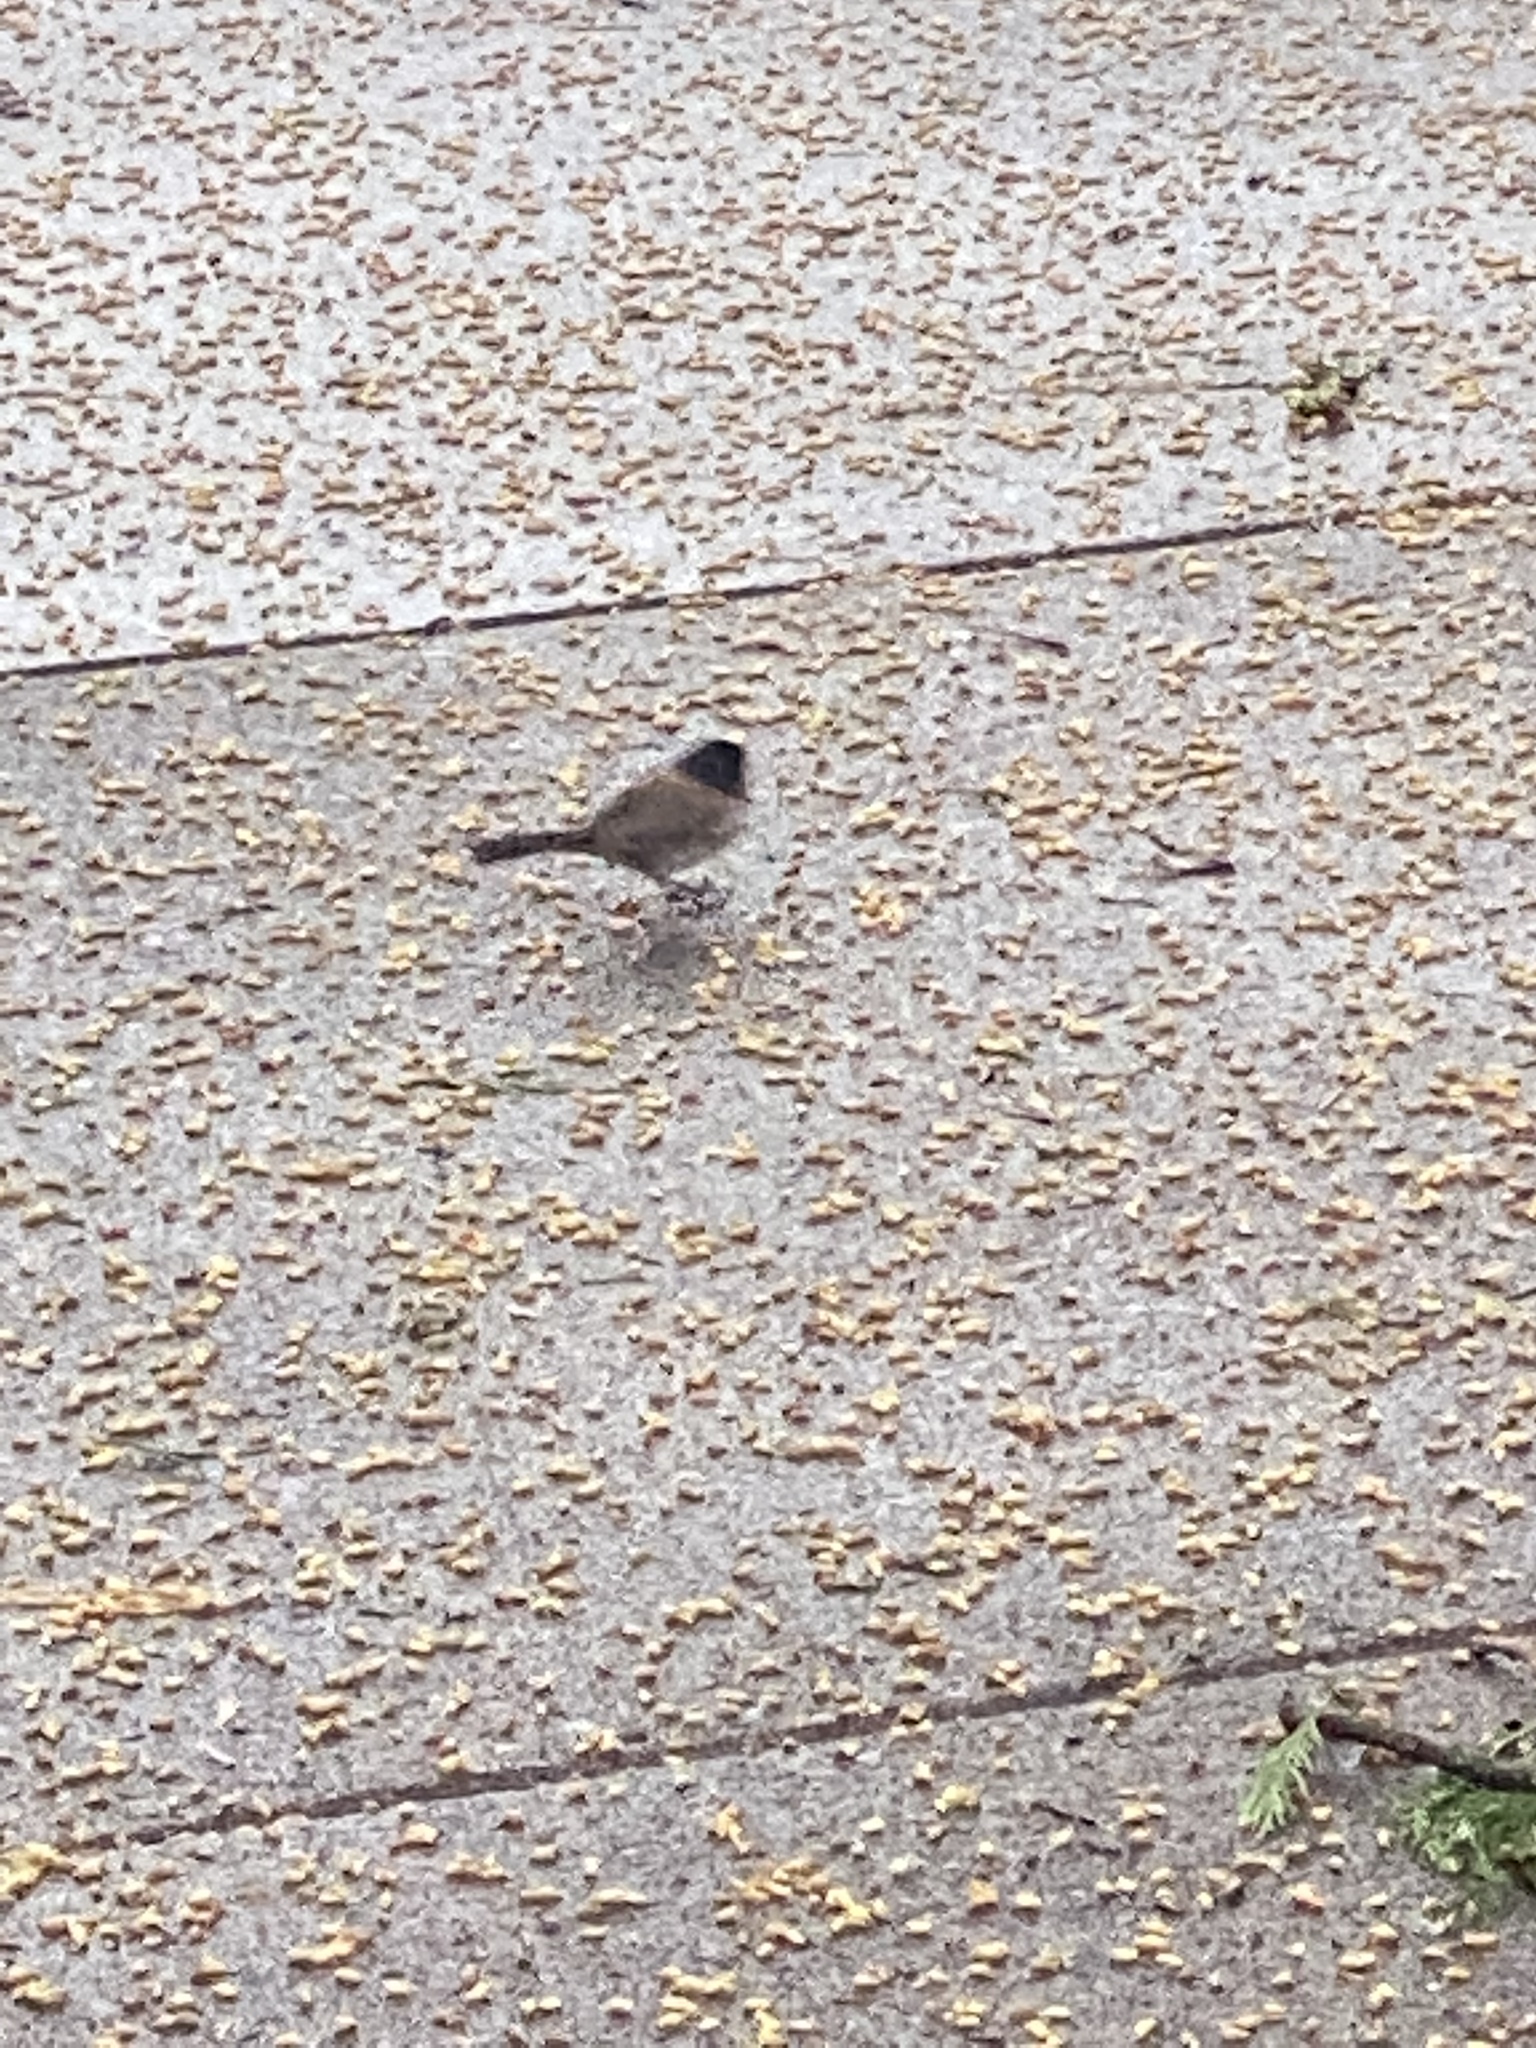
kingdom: Animalia
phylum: Chordata
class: Aves
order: Passeriformes
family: Passerellidae
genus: Junco
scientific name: Junco hyemalis
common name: Dark-eyed junco
